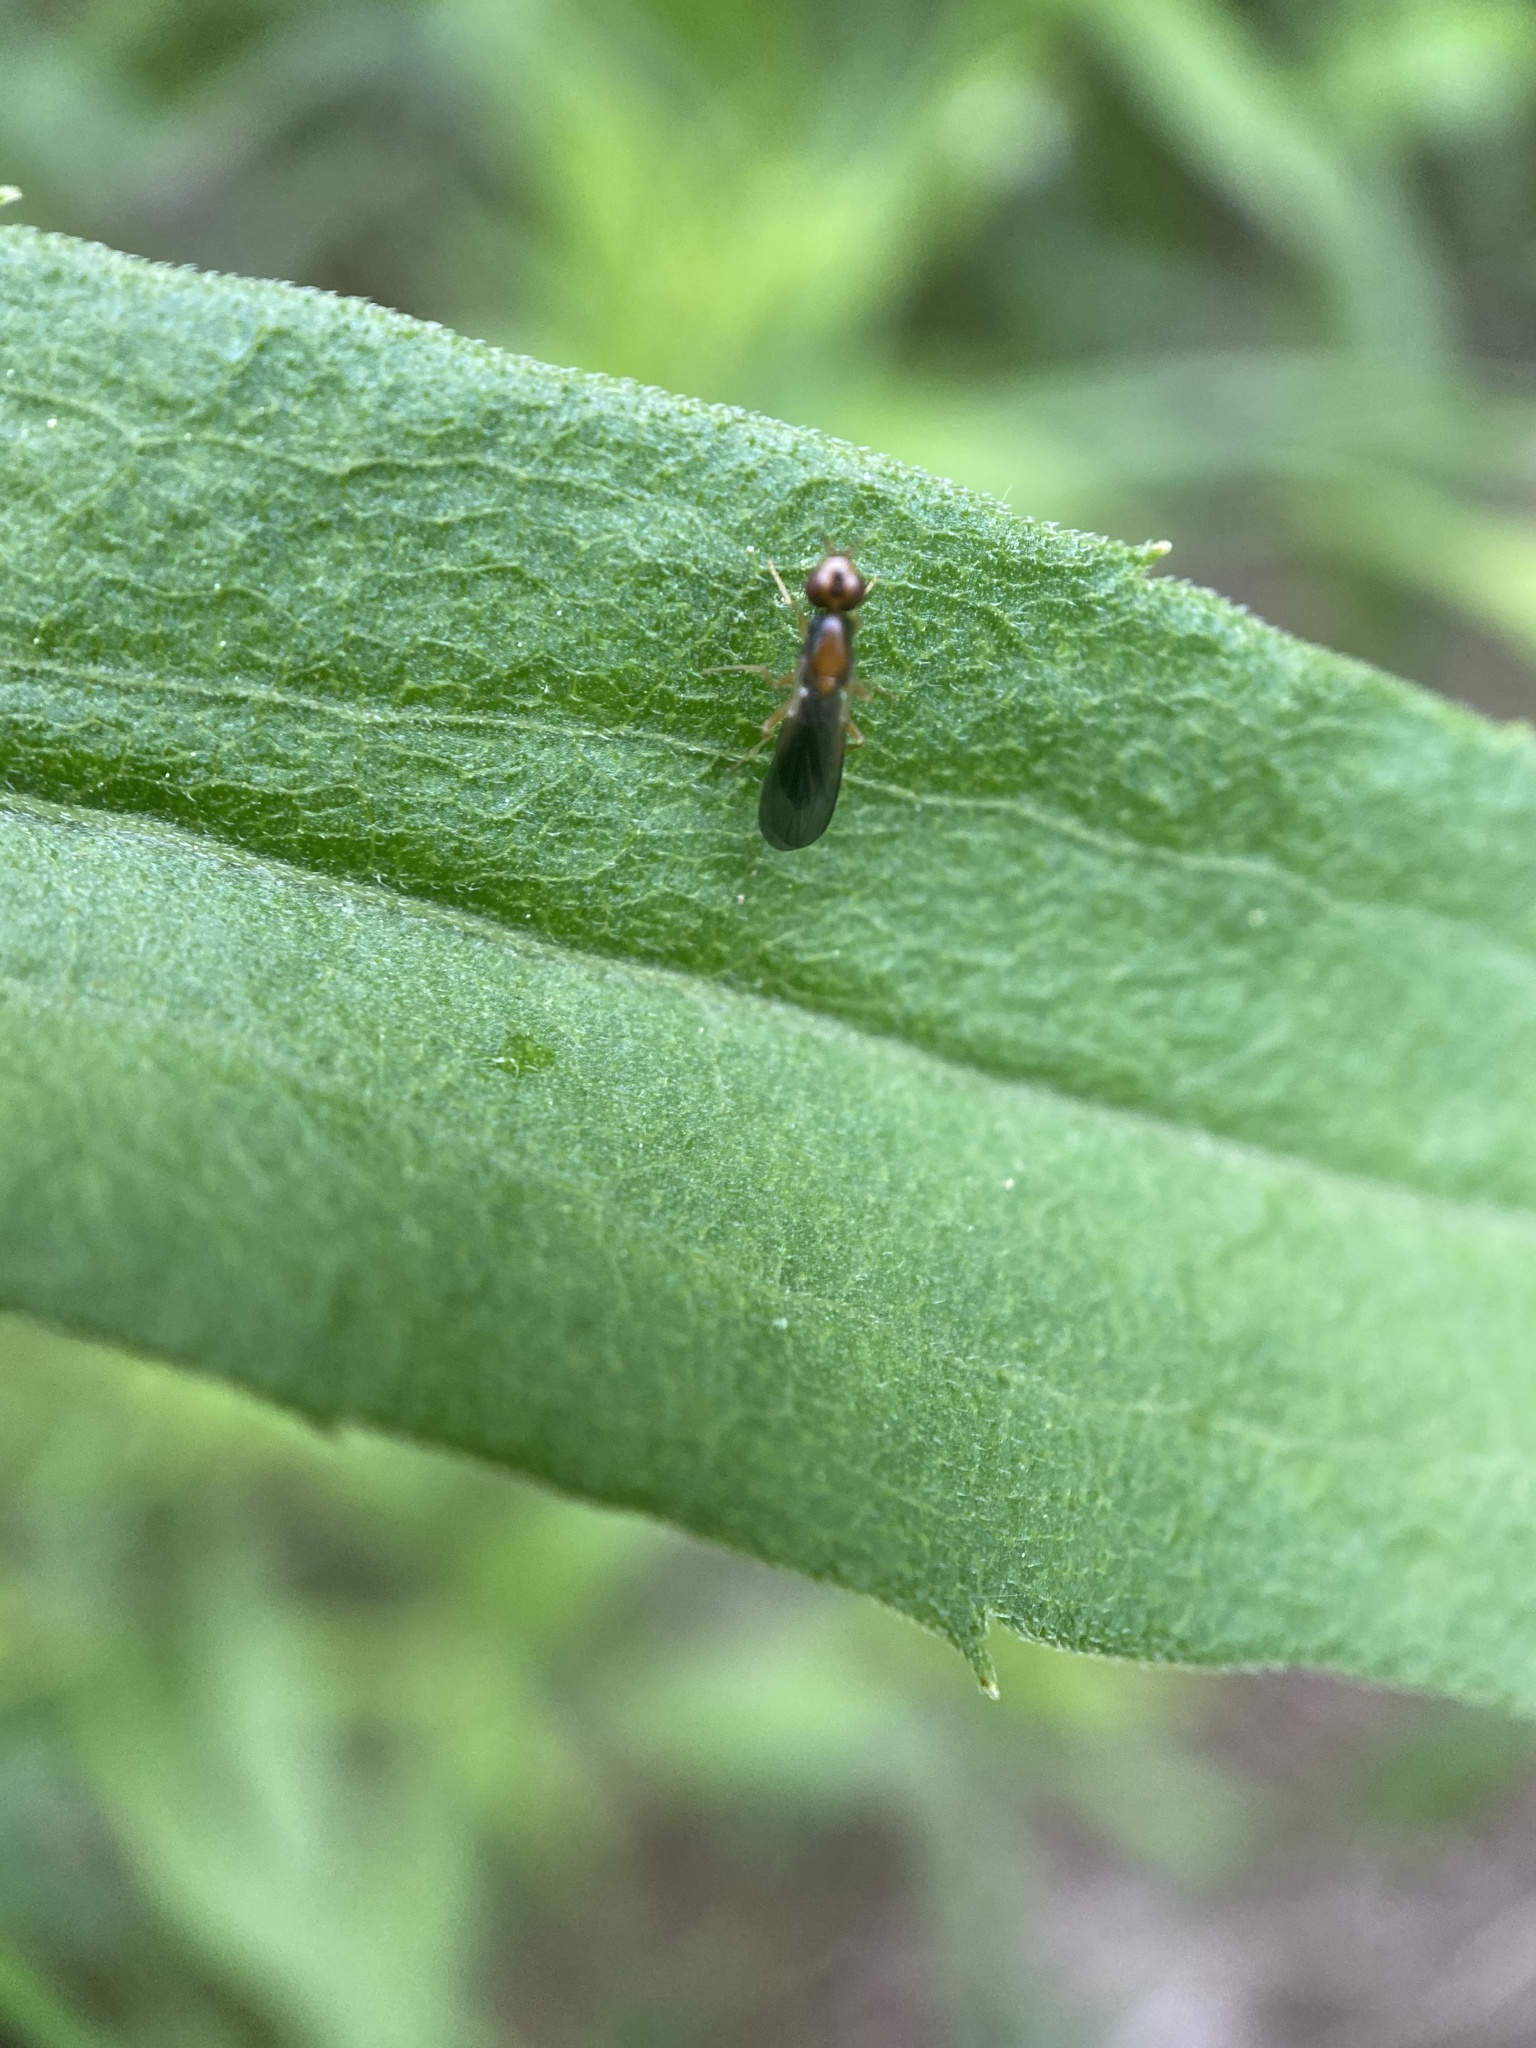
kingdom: Animalia
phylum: Arthropoda
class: Insecta
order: Diptera
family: Psilidae
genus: Psila
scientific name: Psila bivittata
